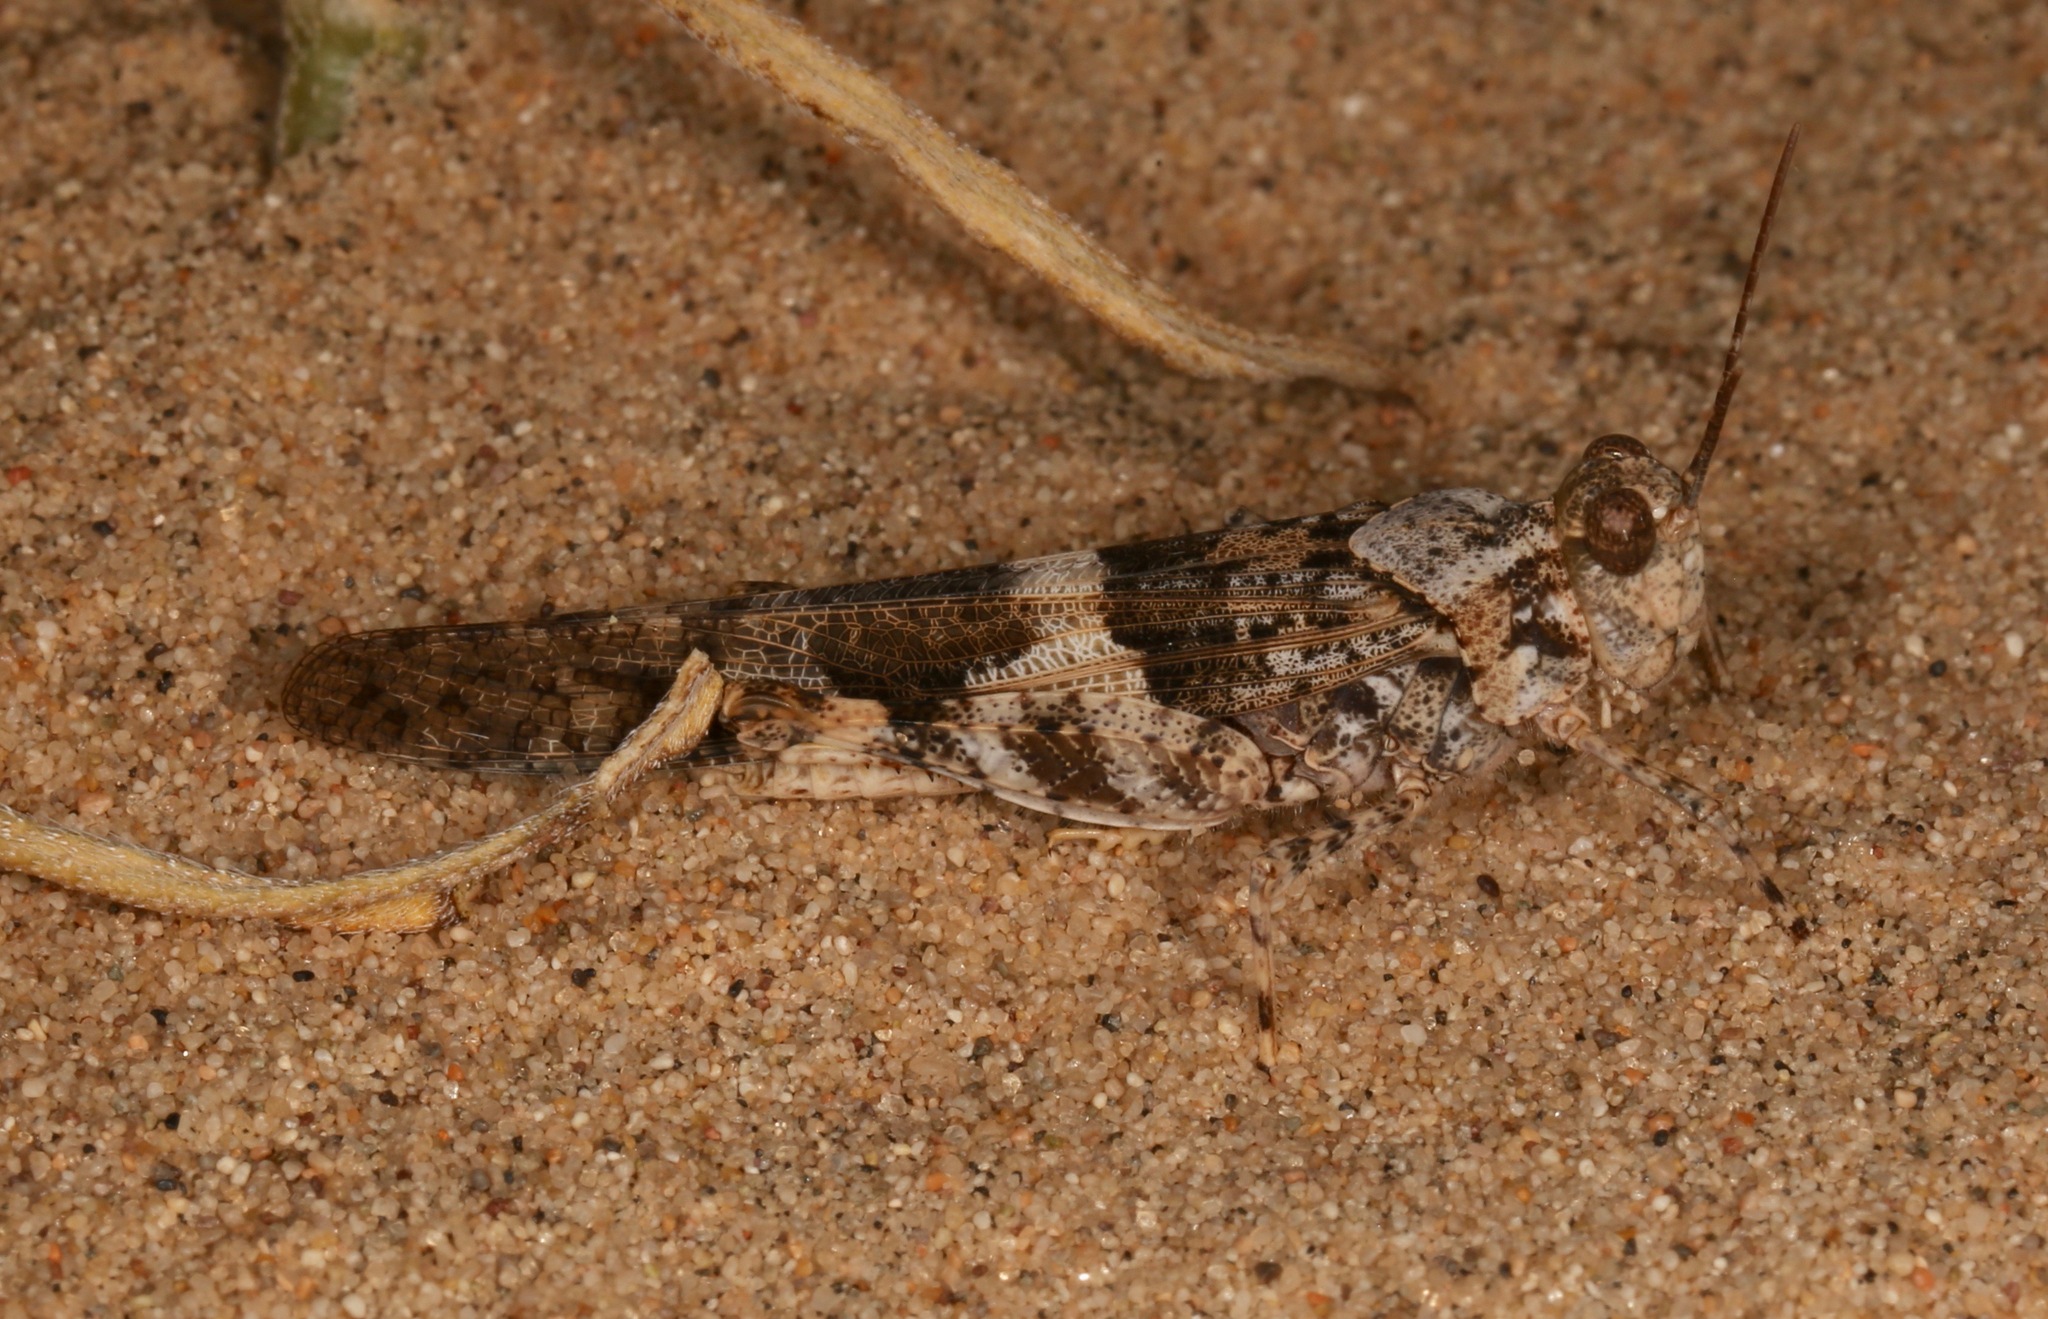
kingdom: Animalia
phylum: Arthropoda
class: Insecta
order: Orthoptera
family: Acrididae
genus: Trimerotropis
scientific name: Trimerotropis pallidipennis
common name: Pallid-winged grasshopper
